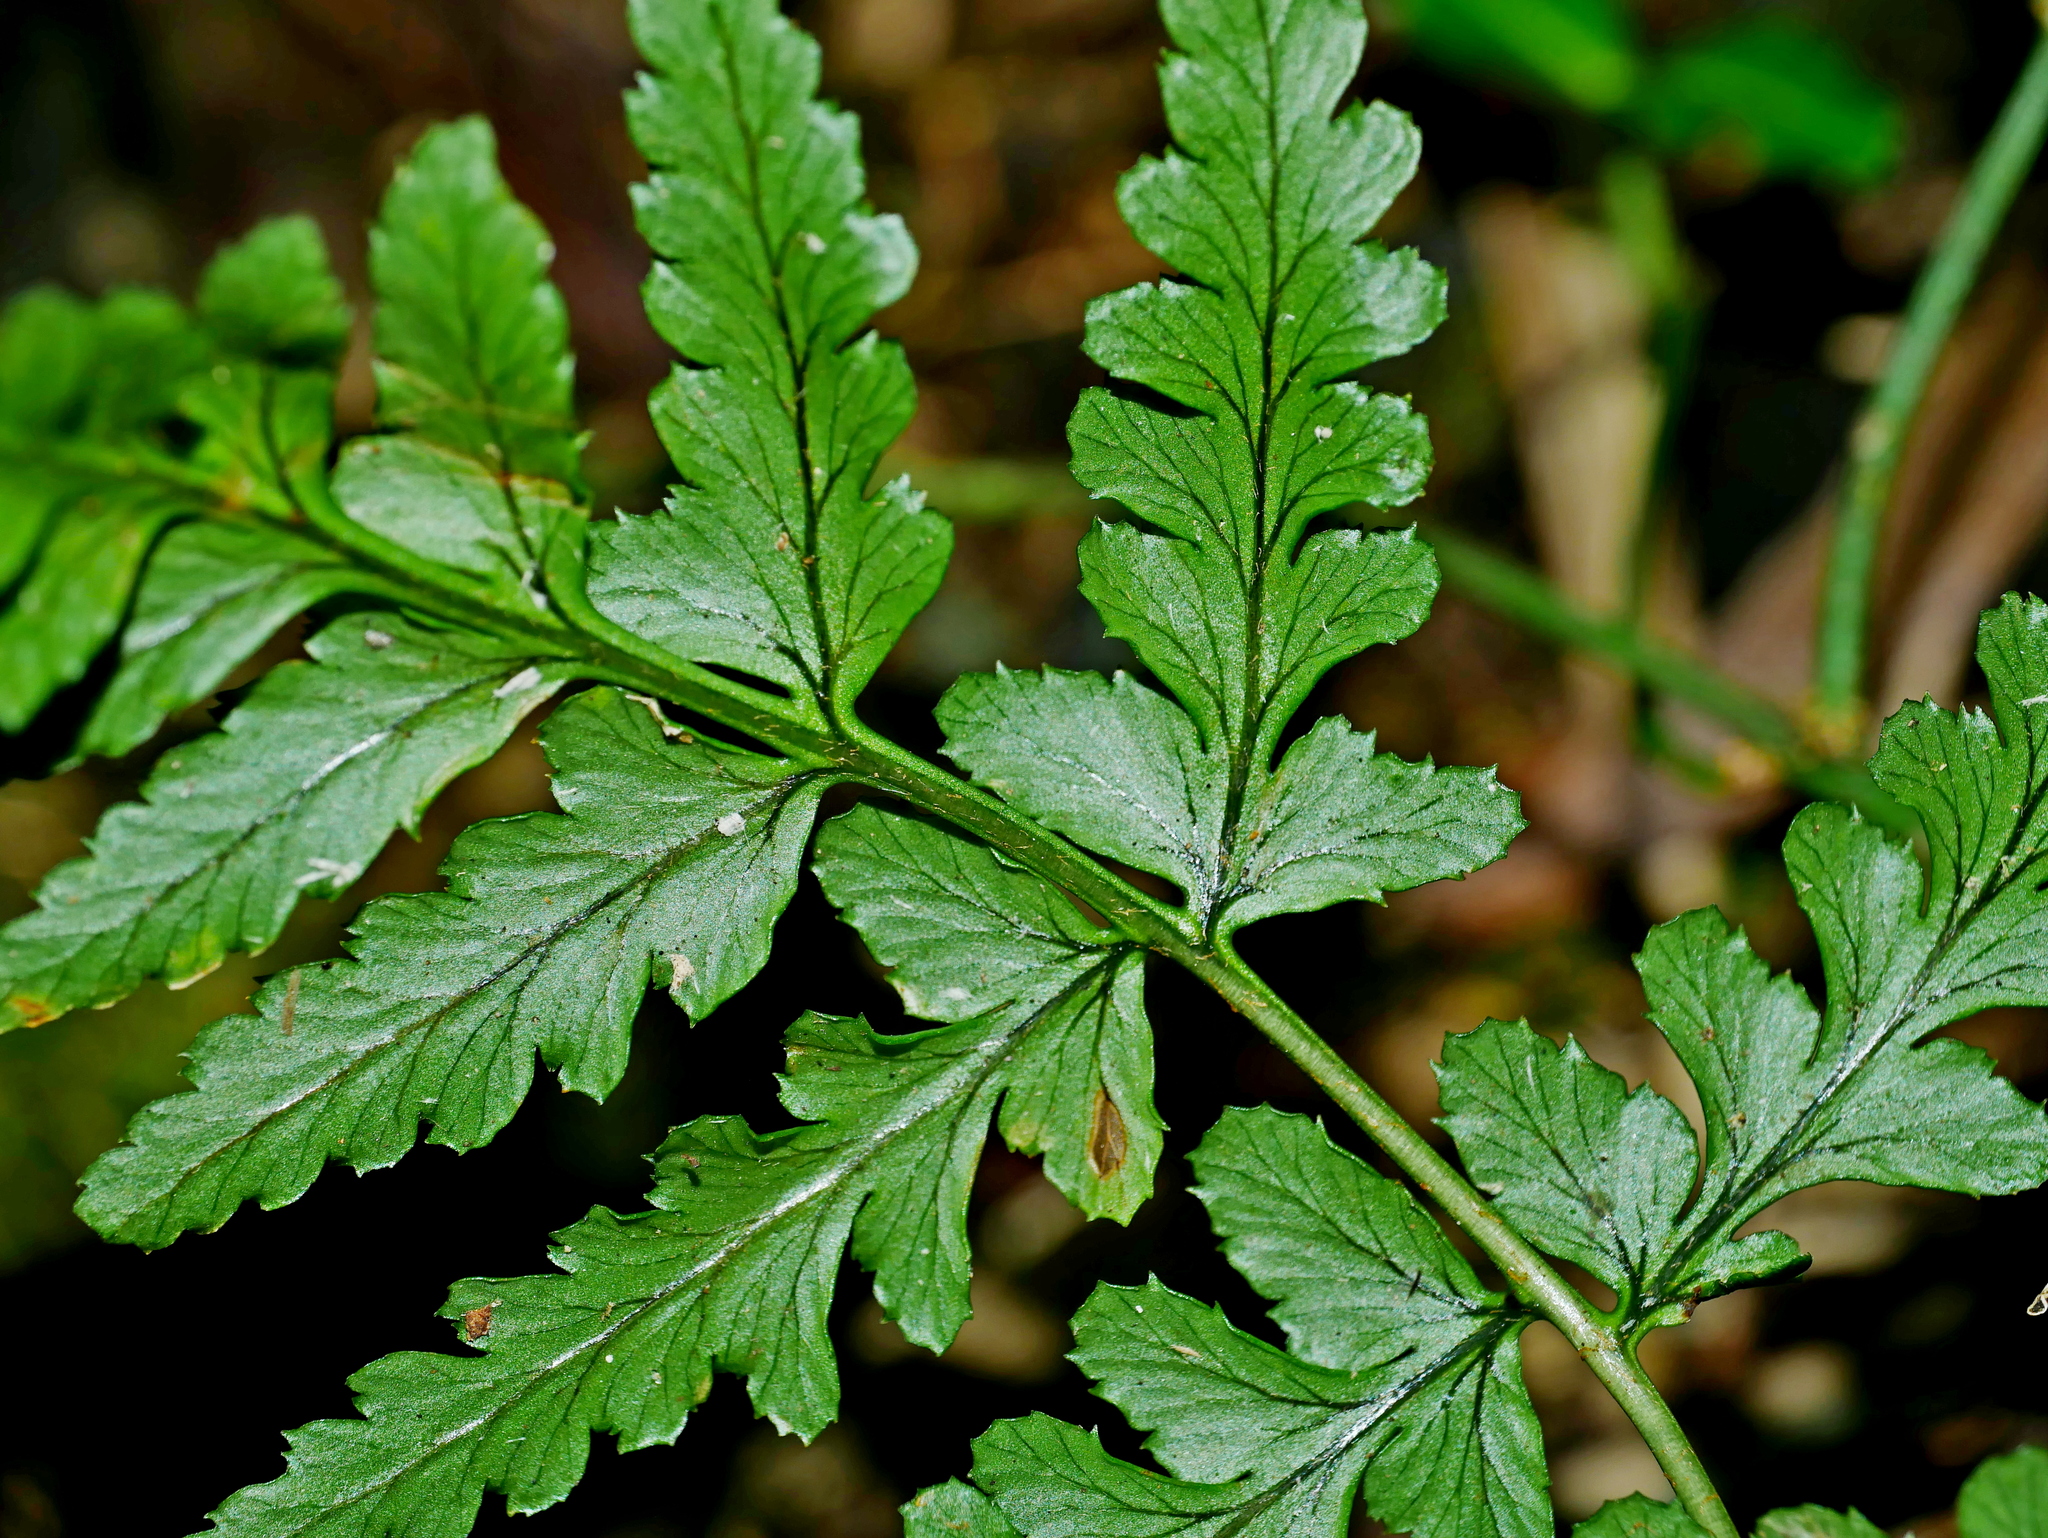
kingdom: Plantae
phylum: Tracheophyta
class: Polypodiopsida
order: Polypodiales
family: Dryopteridaceae
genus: Dryopteris
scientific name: Dryopteris reflexosquamata
